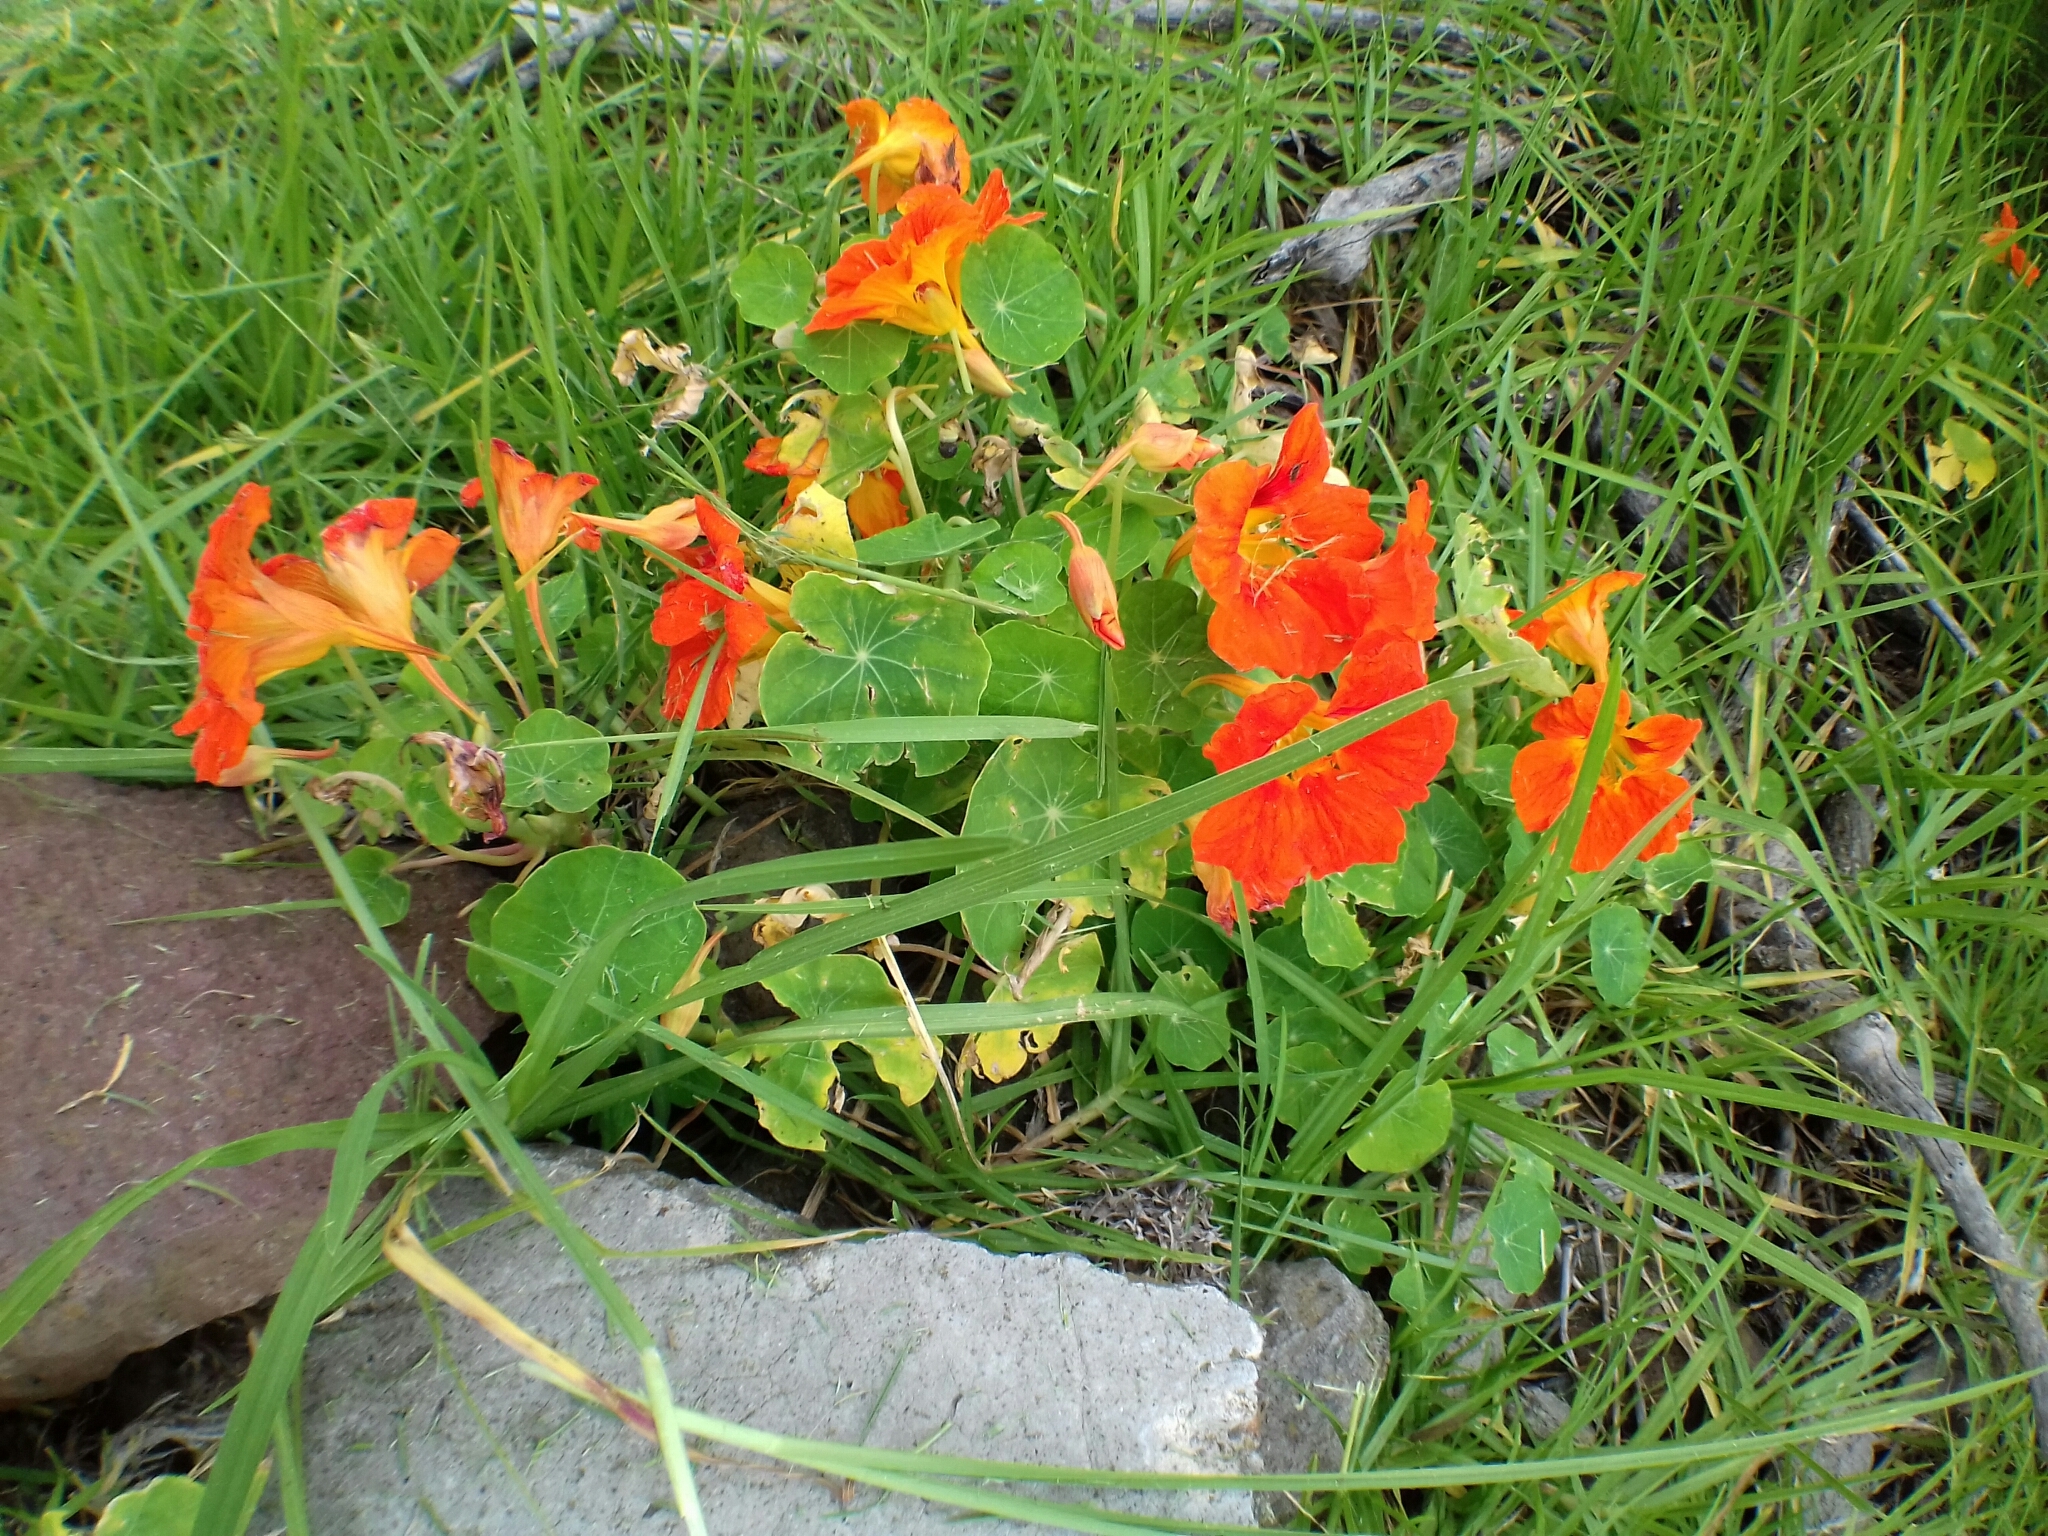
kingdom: Plantae
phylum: Tracheophyta
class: Magnoliopsida
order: Brassicales
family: Tropaeolaceae
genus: Tropaeolum
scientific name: Tropaeolum majus
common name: Nasturtium
